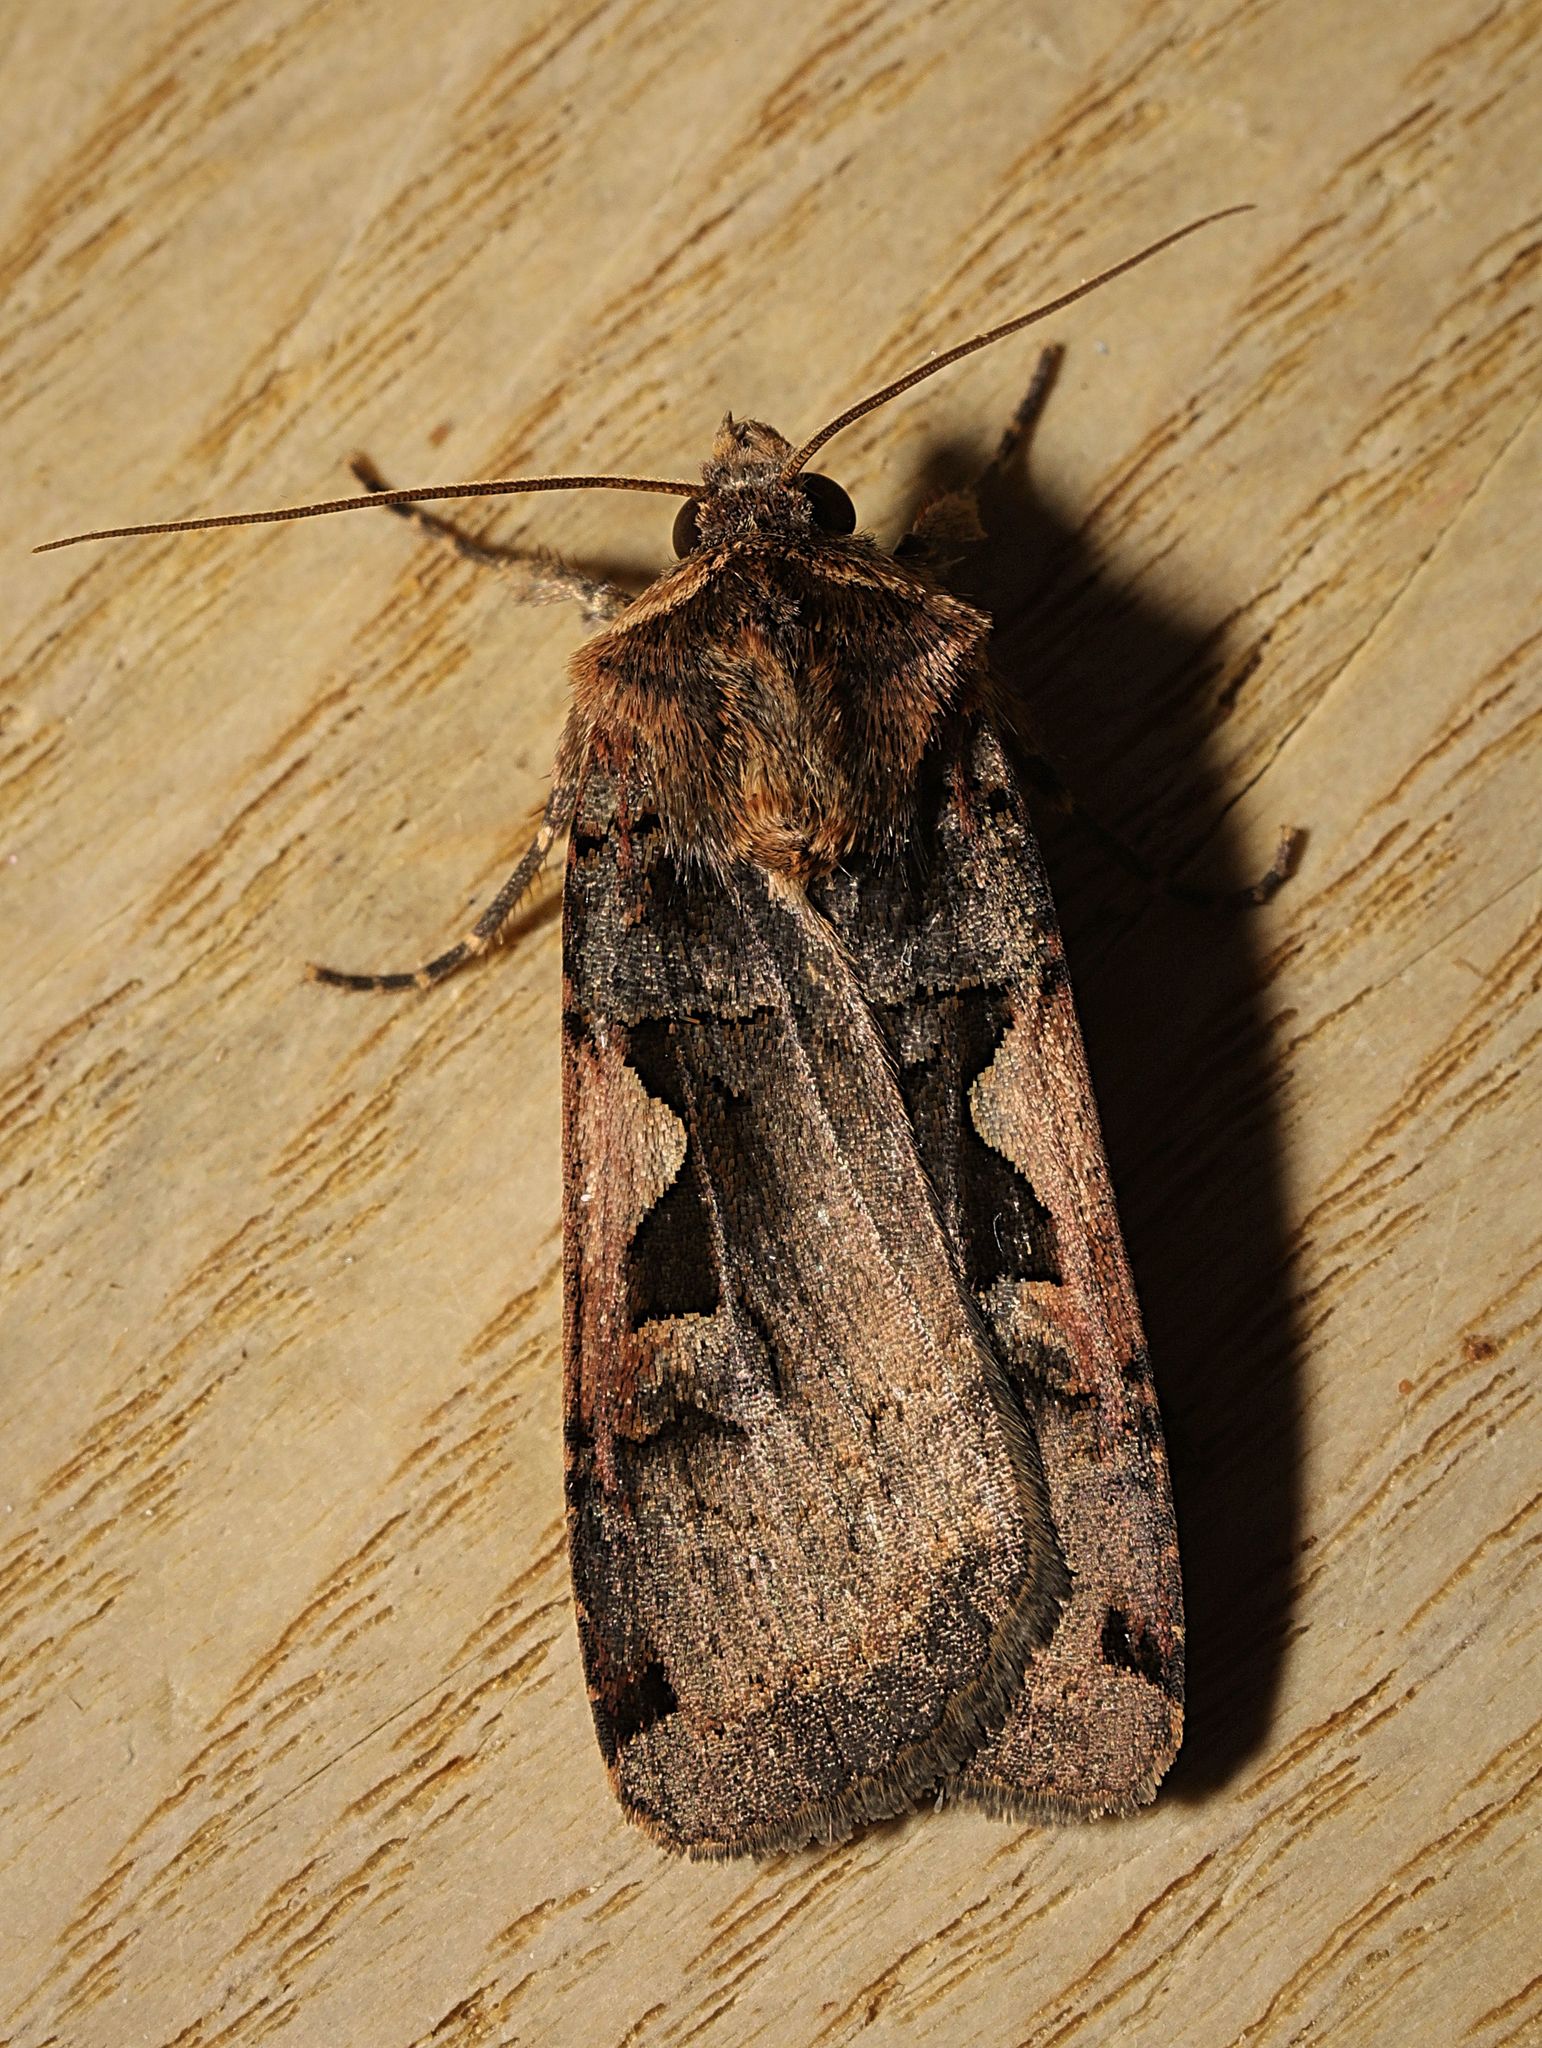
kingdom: Animalia
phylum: Arthropoda
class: Insecta
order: Lepidoptera
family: Noctuidae
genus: Xestia
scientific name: Xestia c-nigrum
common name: Setaceous hebrew character
